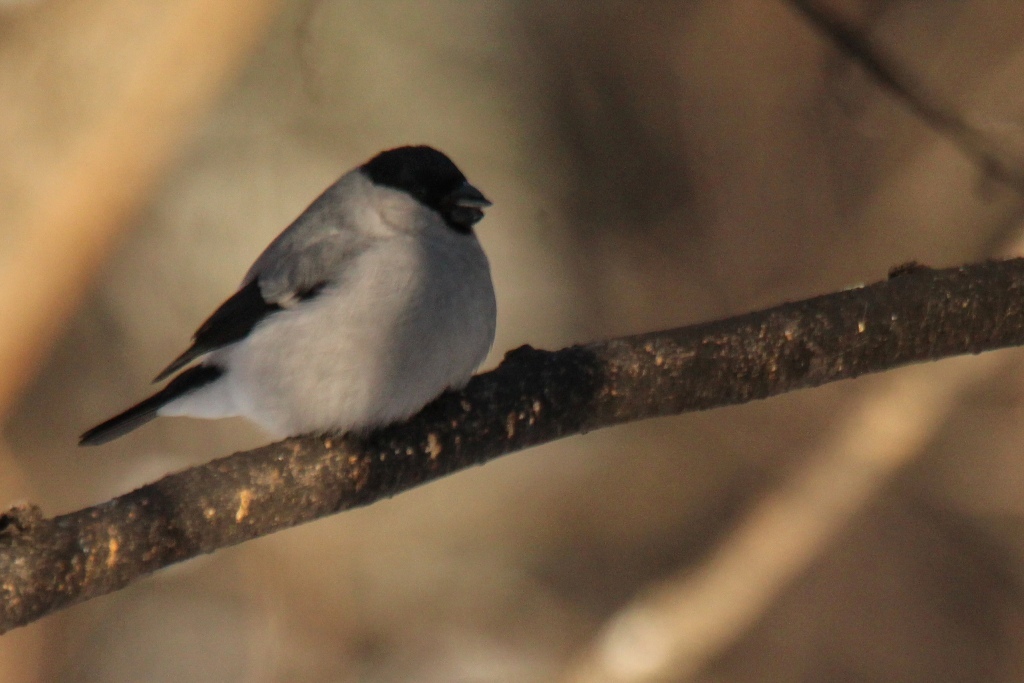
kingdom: Animalia
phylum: Chordata
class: Aves
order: Passeriformes
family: Fringillidae
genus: Pyrrhula
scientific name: Pyrrhula pyrrhula
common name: Eurasian bullfinch
